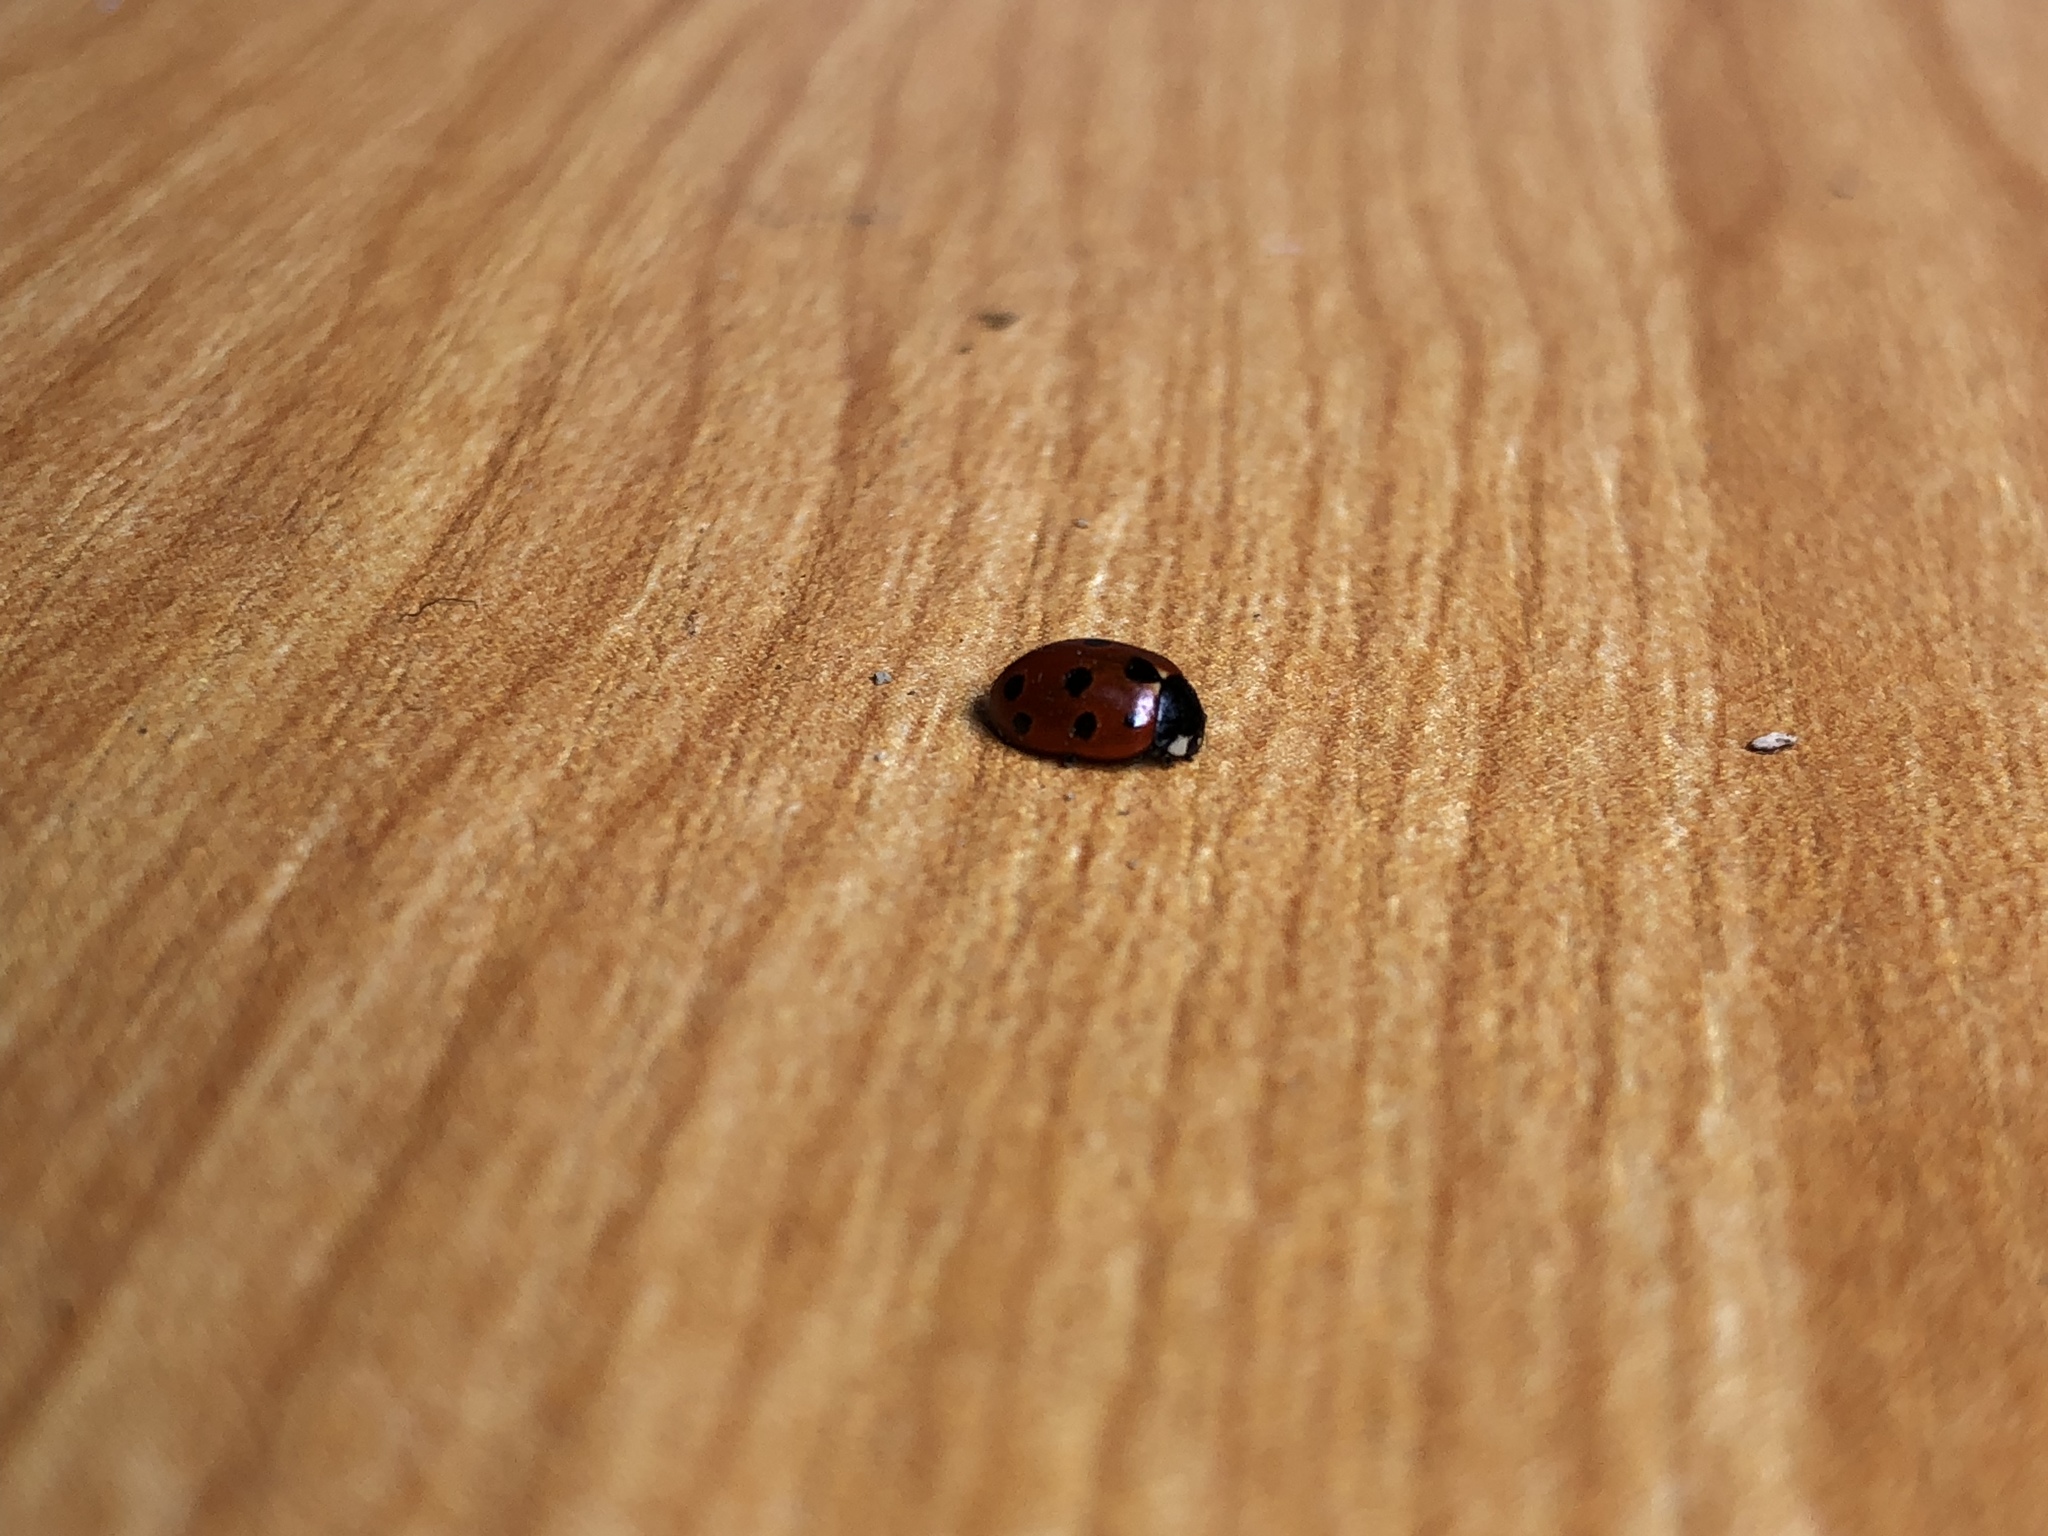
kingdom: Animalia
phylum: Arthropoda
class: Insecta
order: Coleoptera
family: Coccinellidae
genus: Coccinella
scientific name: Coccinella undecimpunctata
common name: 11-spot ladybird
